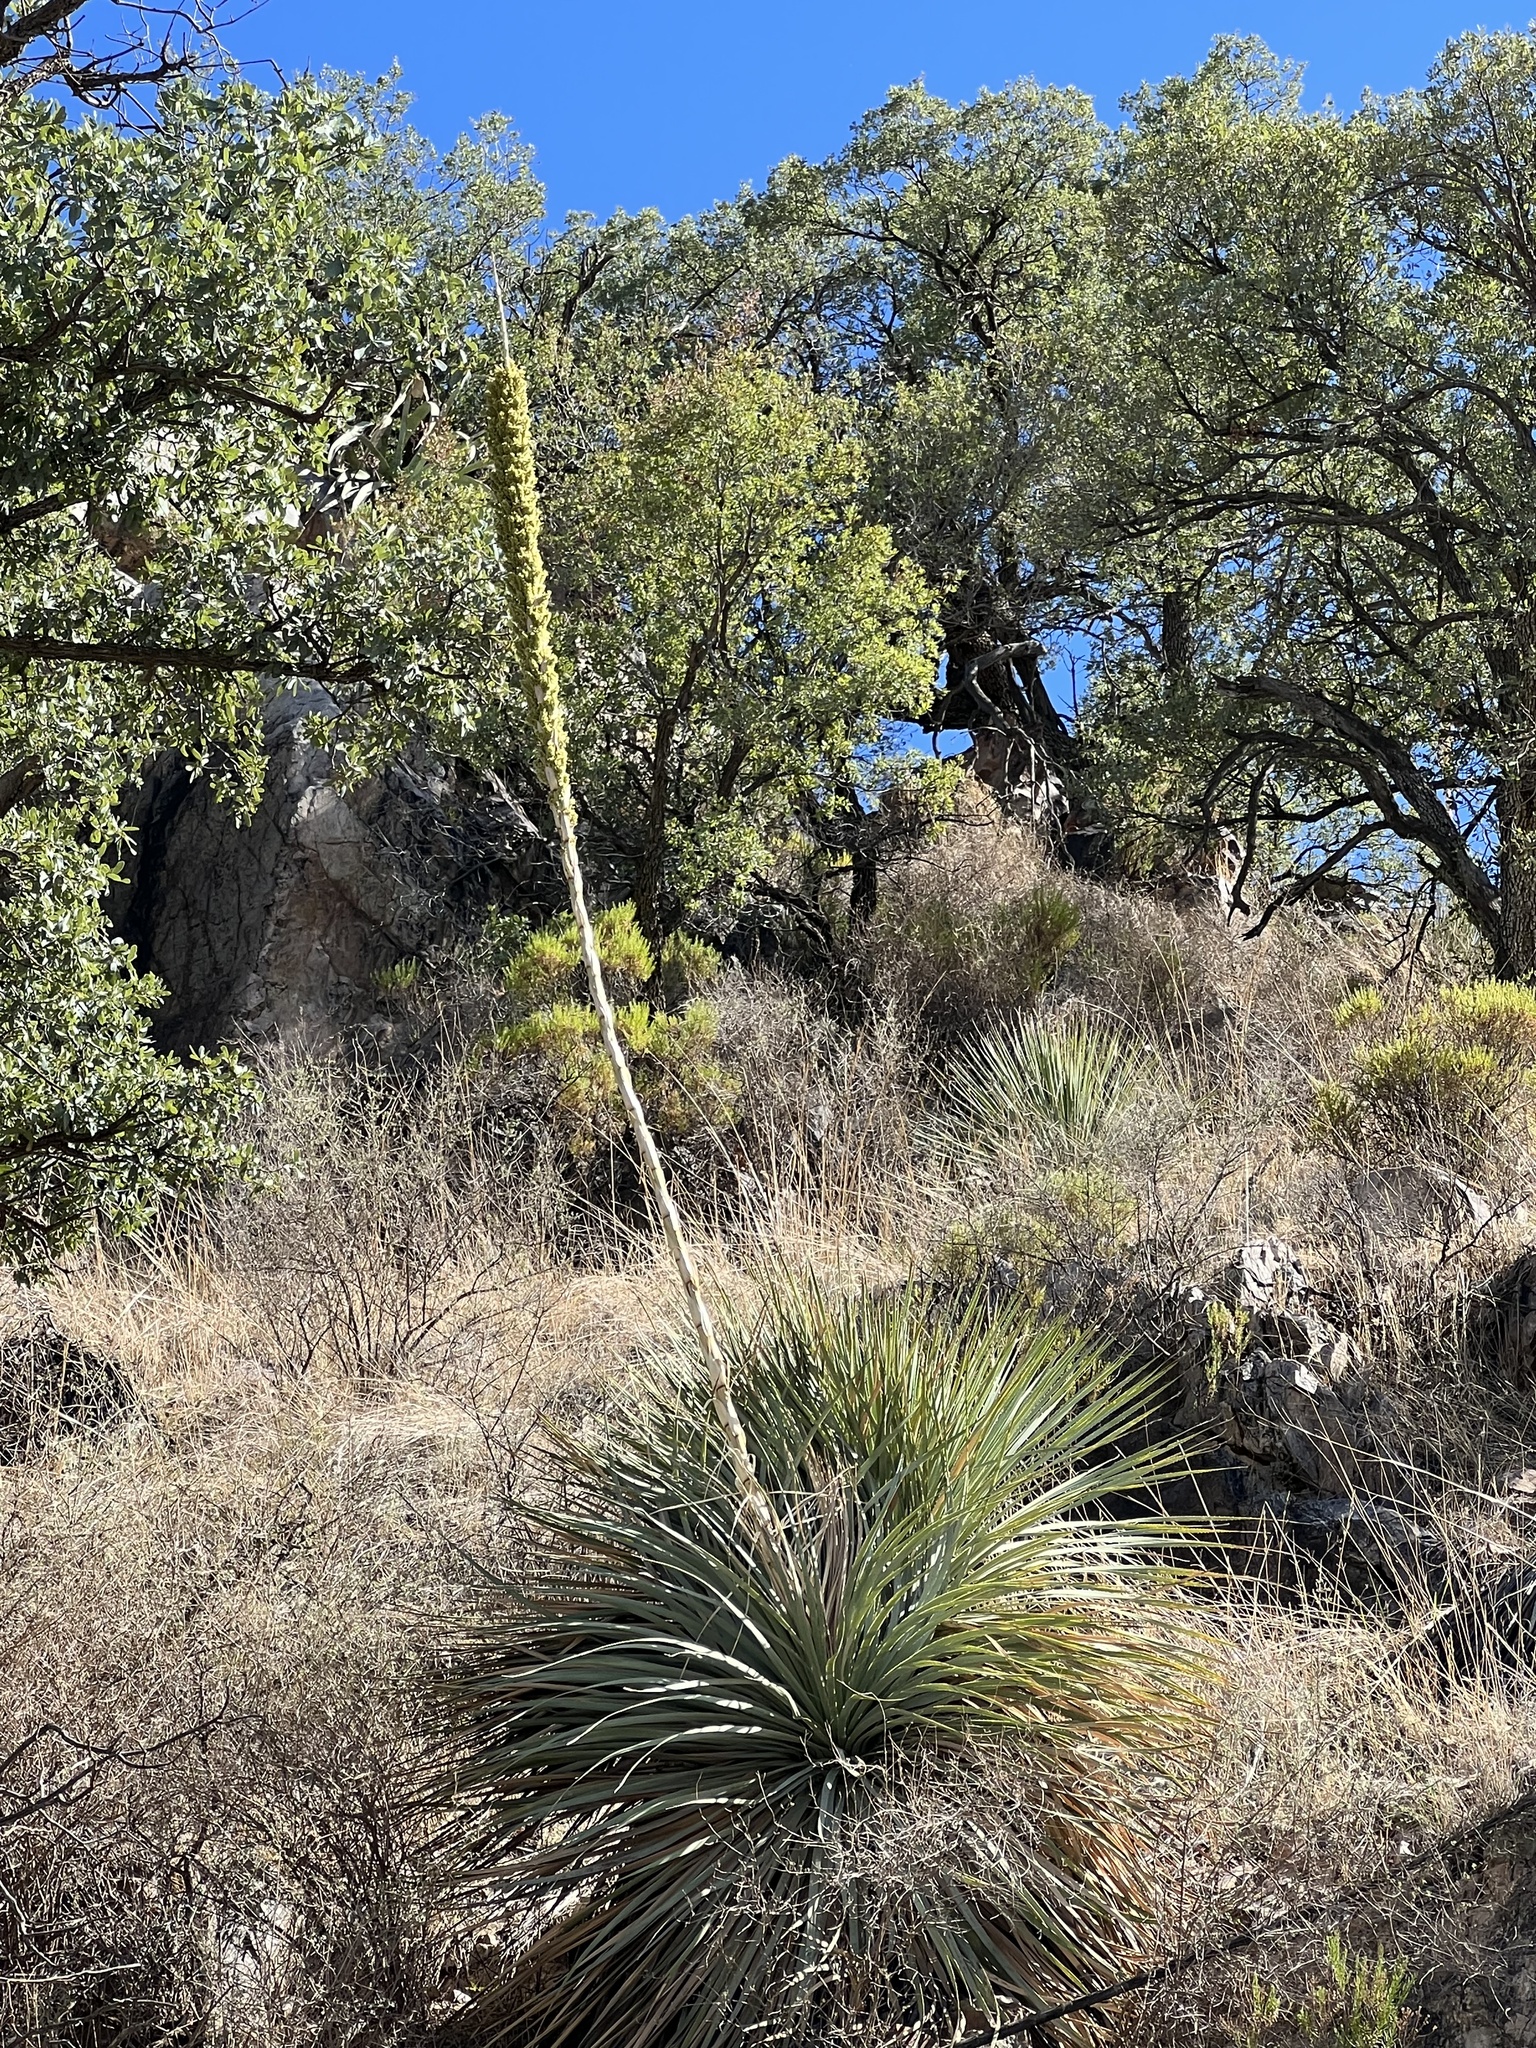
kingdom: Plantae
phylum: Tracheophyta
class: Liliopsida
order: Asparagales
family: Asparagaceae
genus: Dasylirion
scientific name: Dasylirion wheeleri
